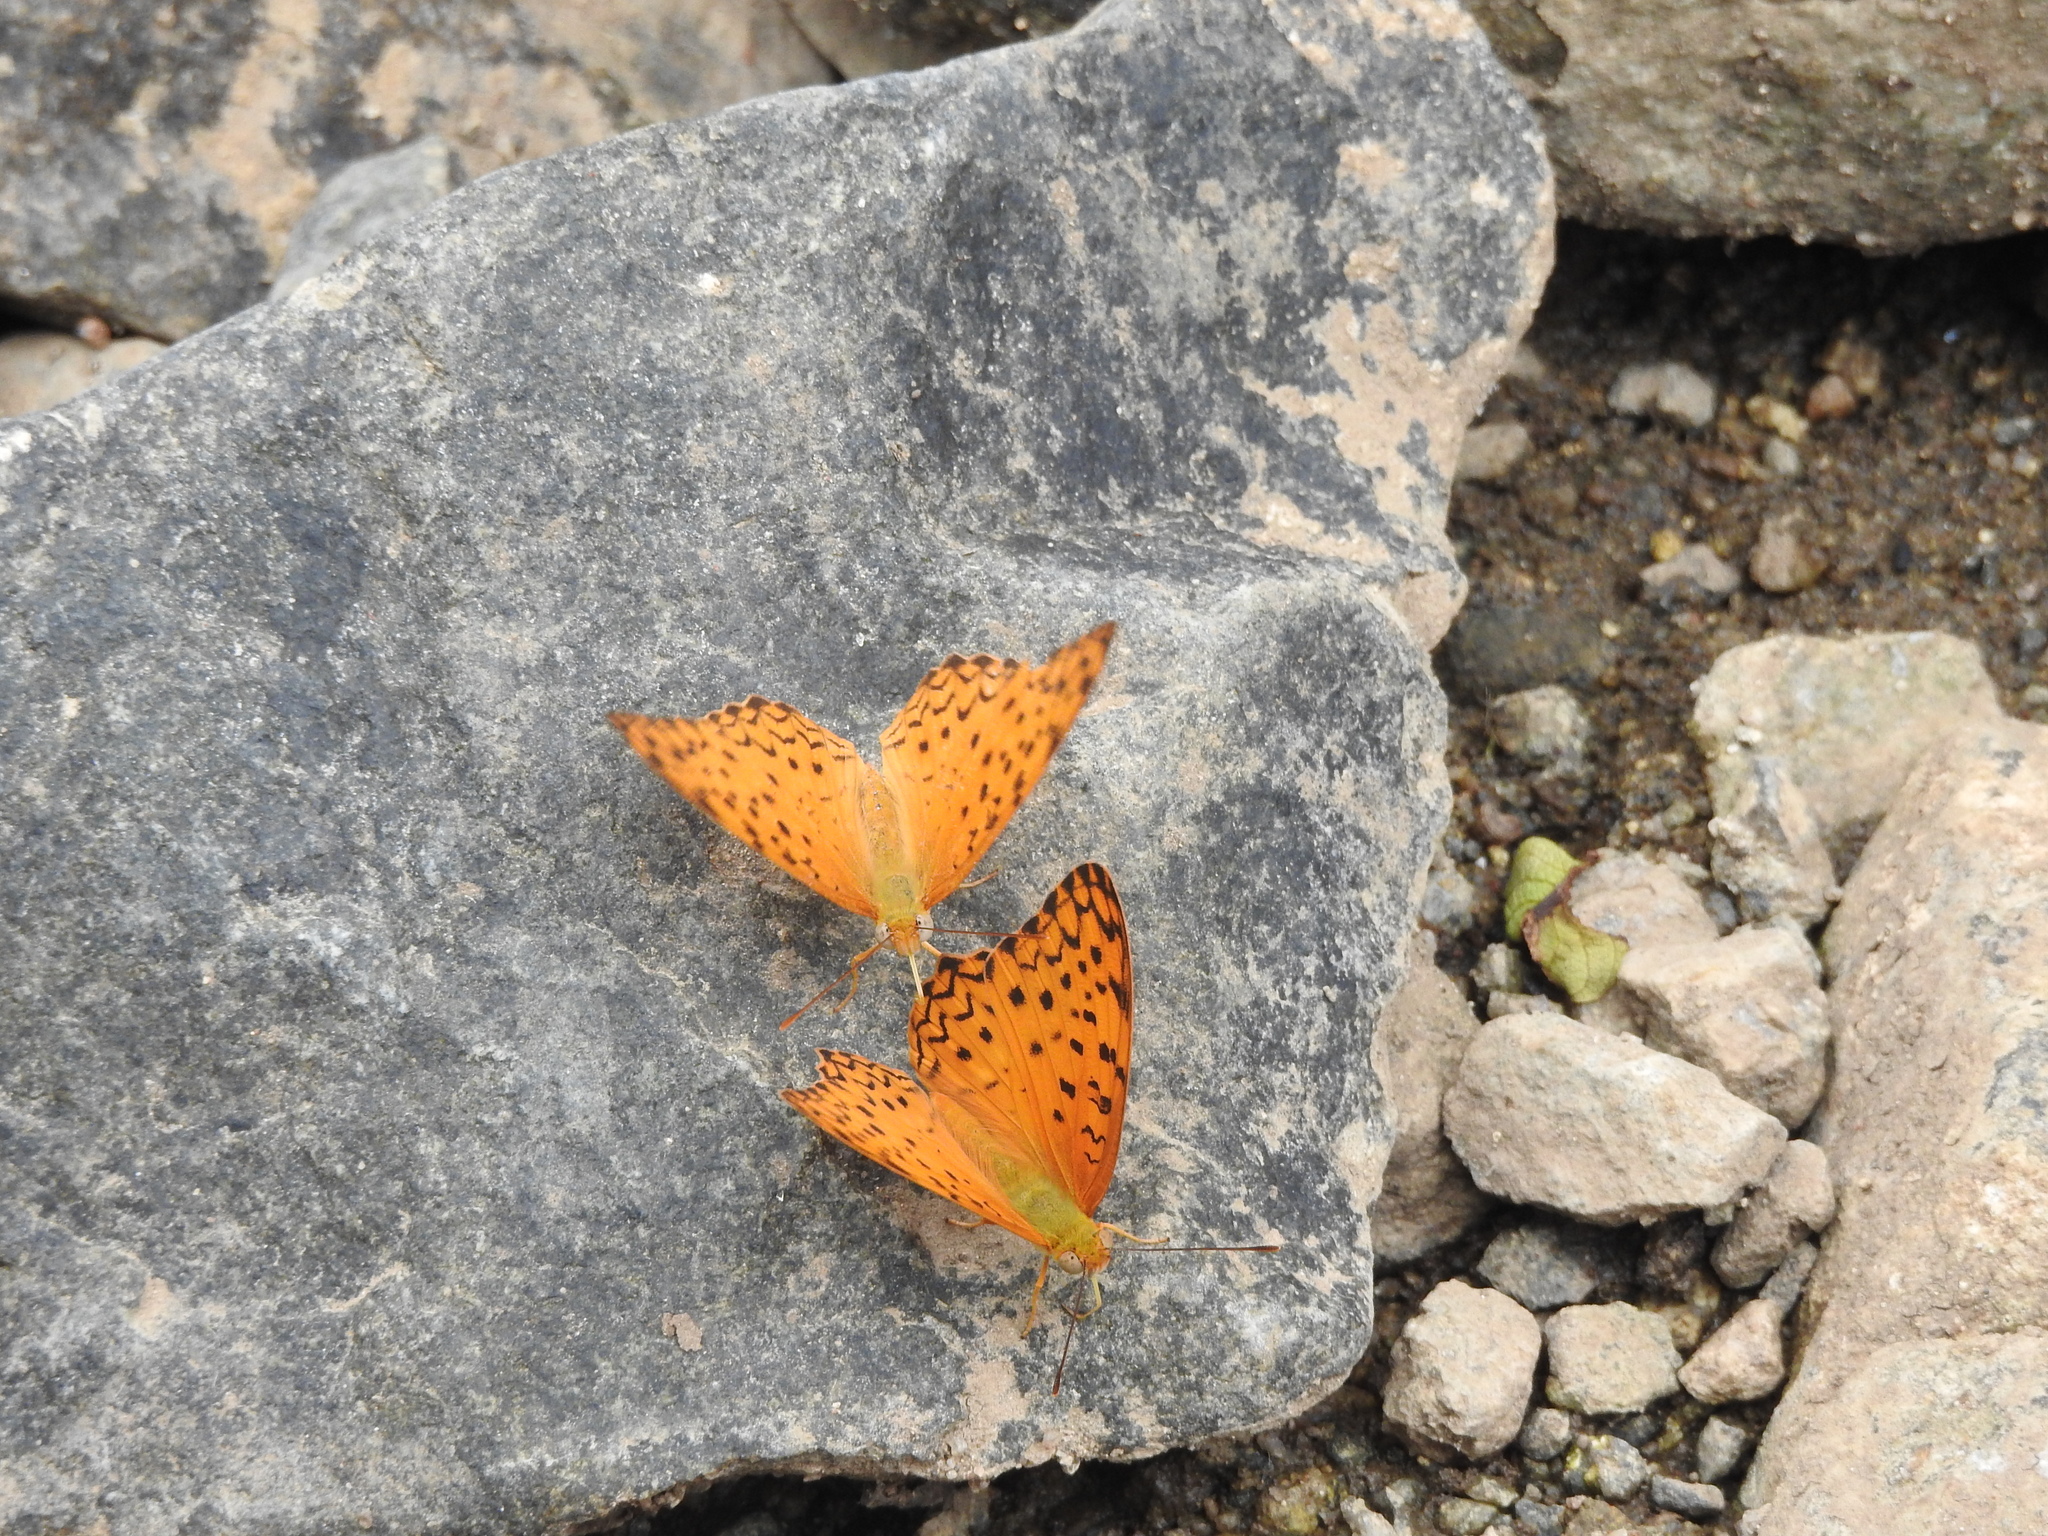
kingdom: Animalia
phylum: Arthropoda
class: Insecta
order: Lepidoptera
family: Nymphalidae
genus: Phalanta
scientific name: Phalanta phalantha
